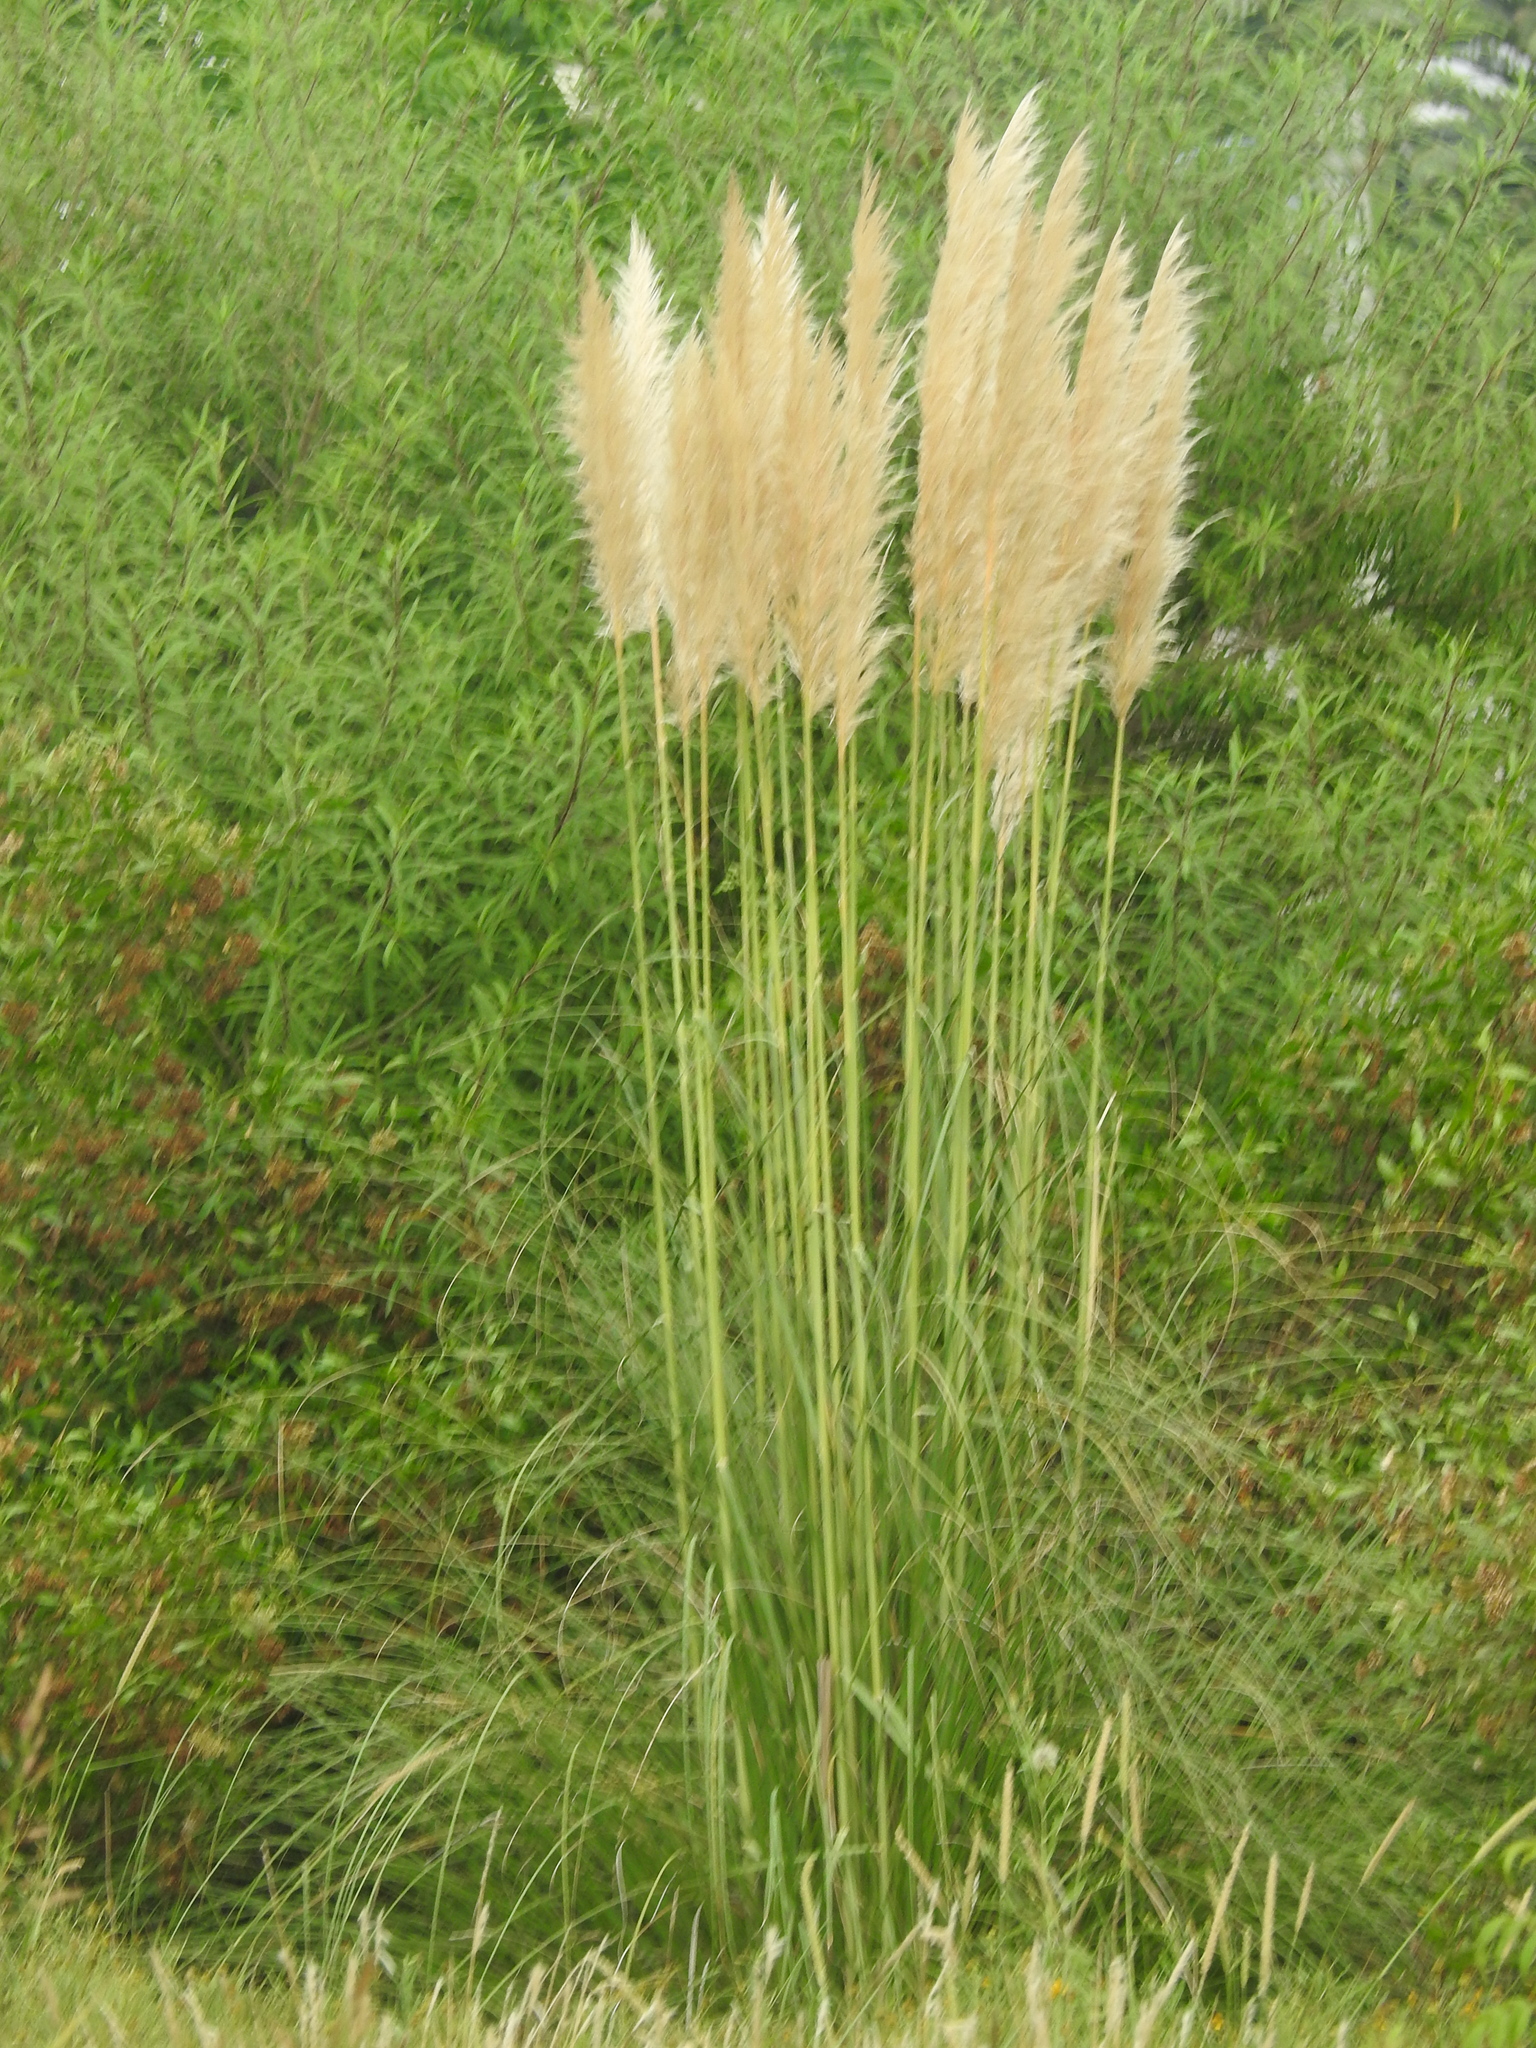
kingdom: Plantae
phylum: Tracheophyta
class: Liliopsida
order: Poales
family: Poaceae
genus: Cortaderia
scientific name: Cortaderia selloana
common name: Uruguayan pampas grass
